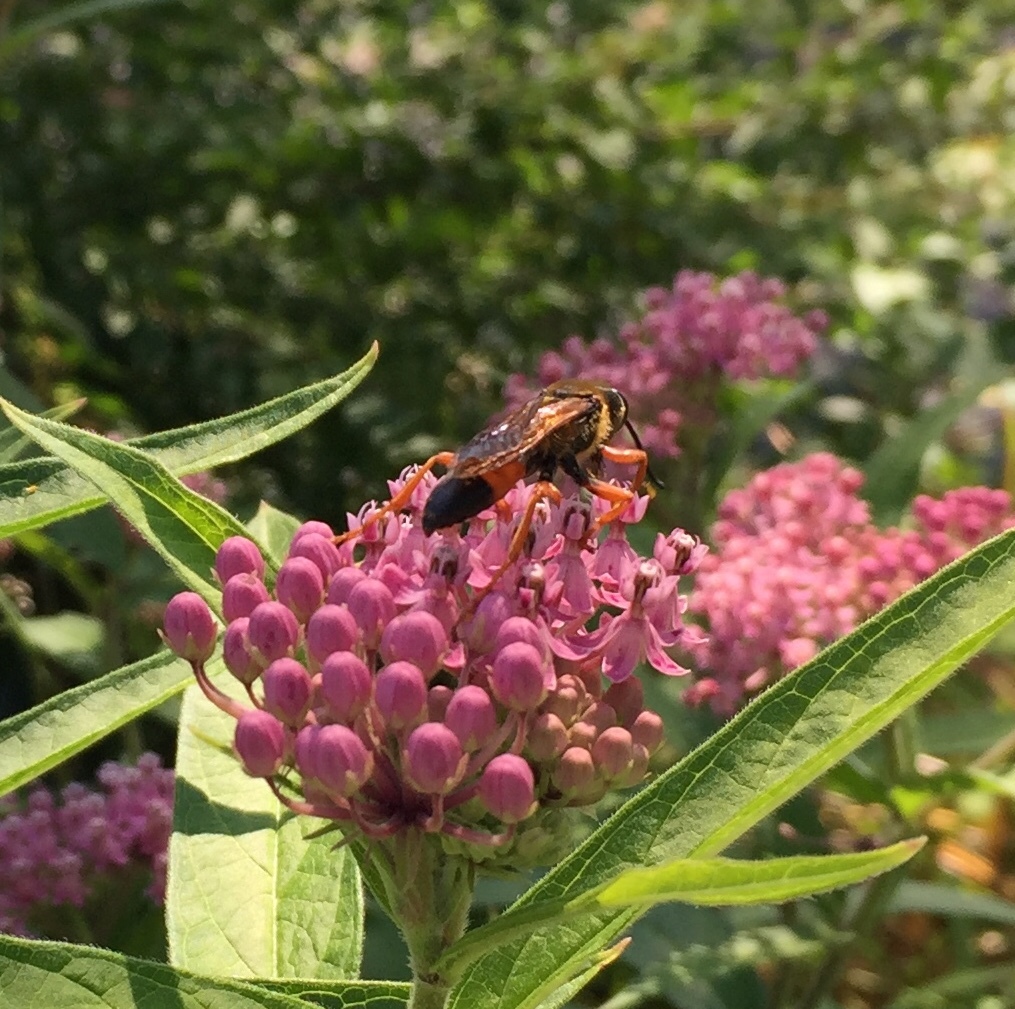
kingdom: Animalia
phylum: Arthropoda
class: Insecta
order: Hymenoptera
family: Sphecidae
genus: Sphex
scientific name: Sphex ichneumoneus
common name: Great golden digger wasp
